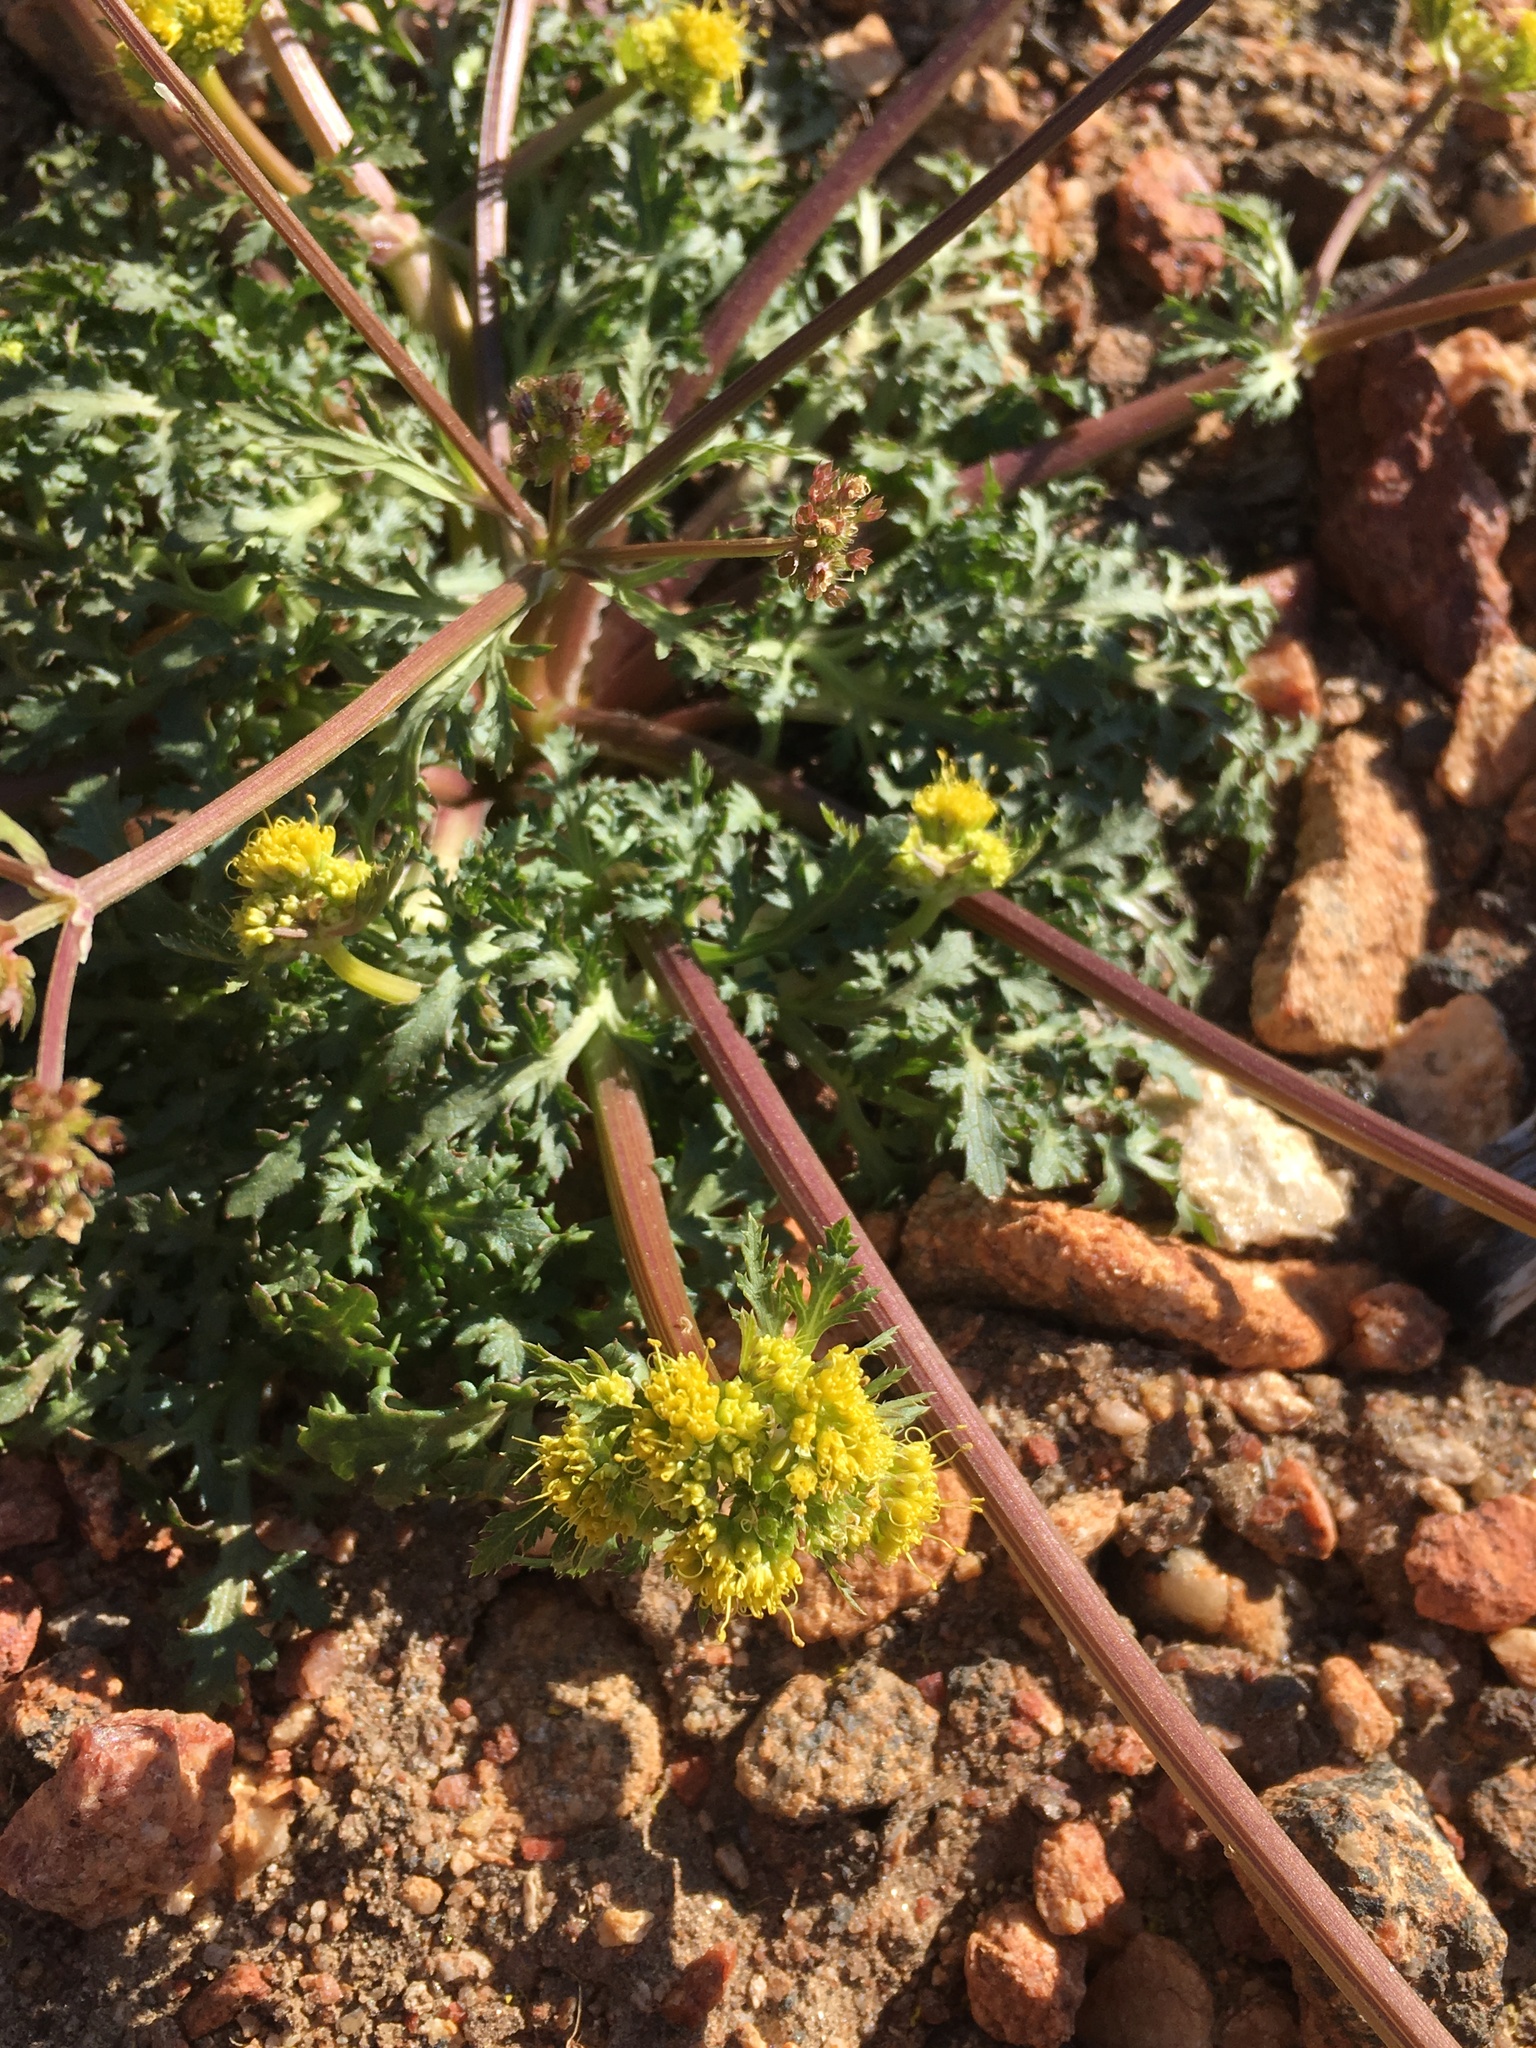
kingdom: Plantae
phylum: Tracheophyta
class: Magnoliopsida
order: Apiales
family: Apiaceae
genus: Sanicula
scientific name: Sanicula graveolens
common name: Sierra sanicle
